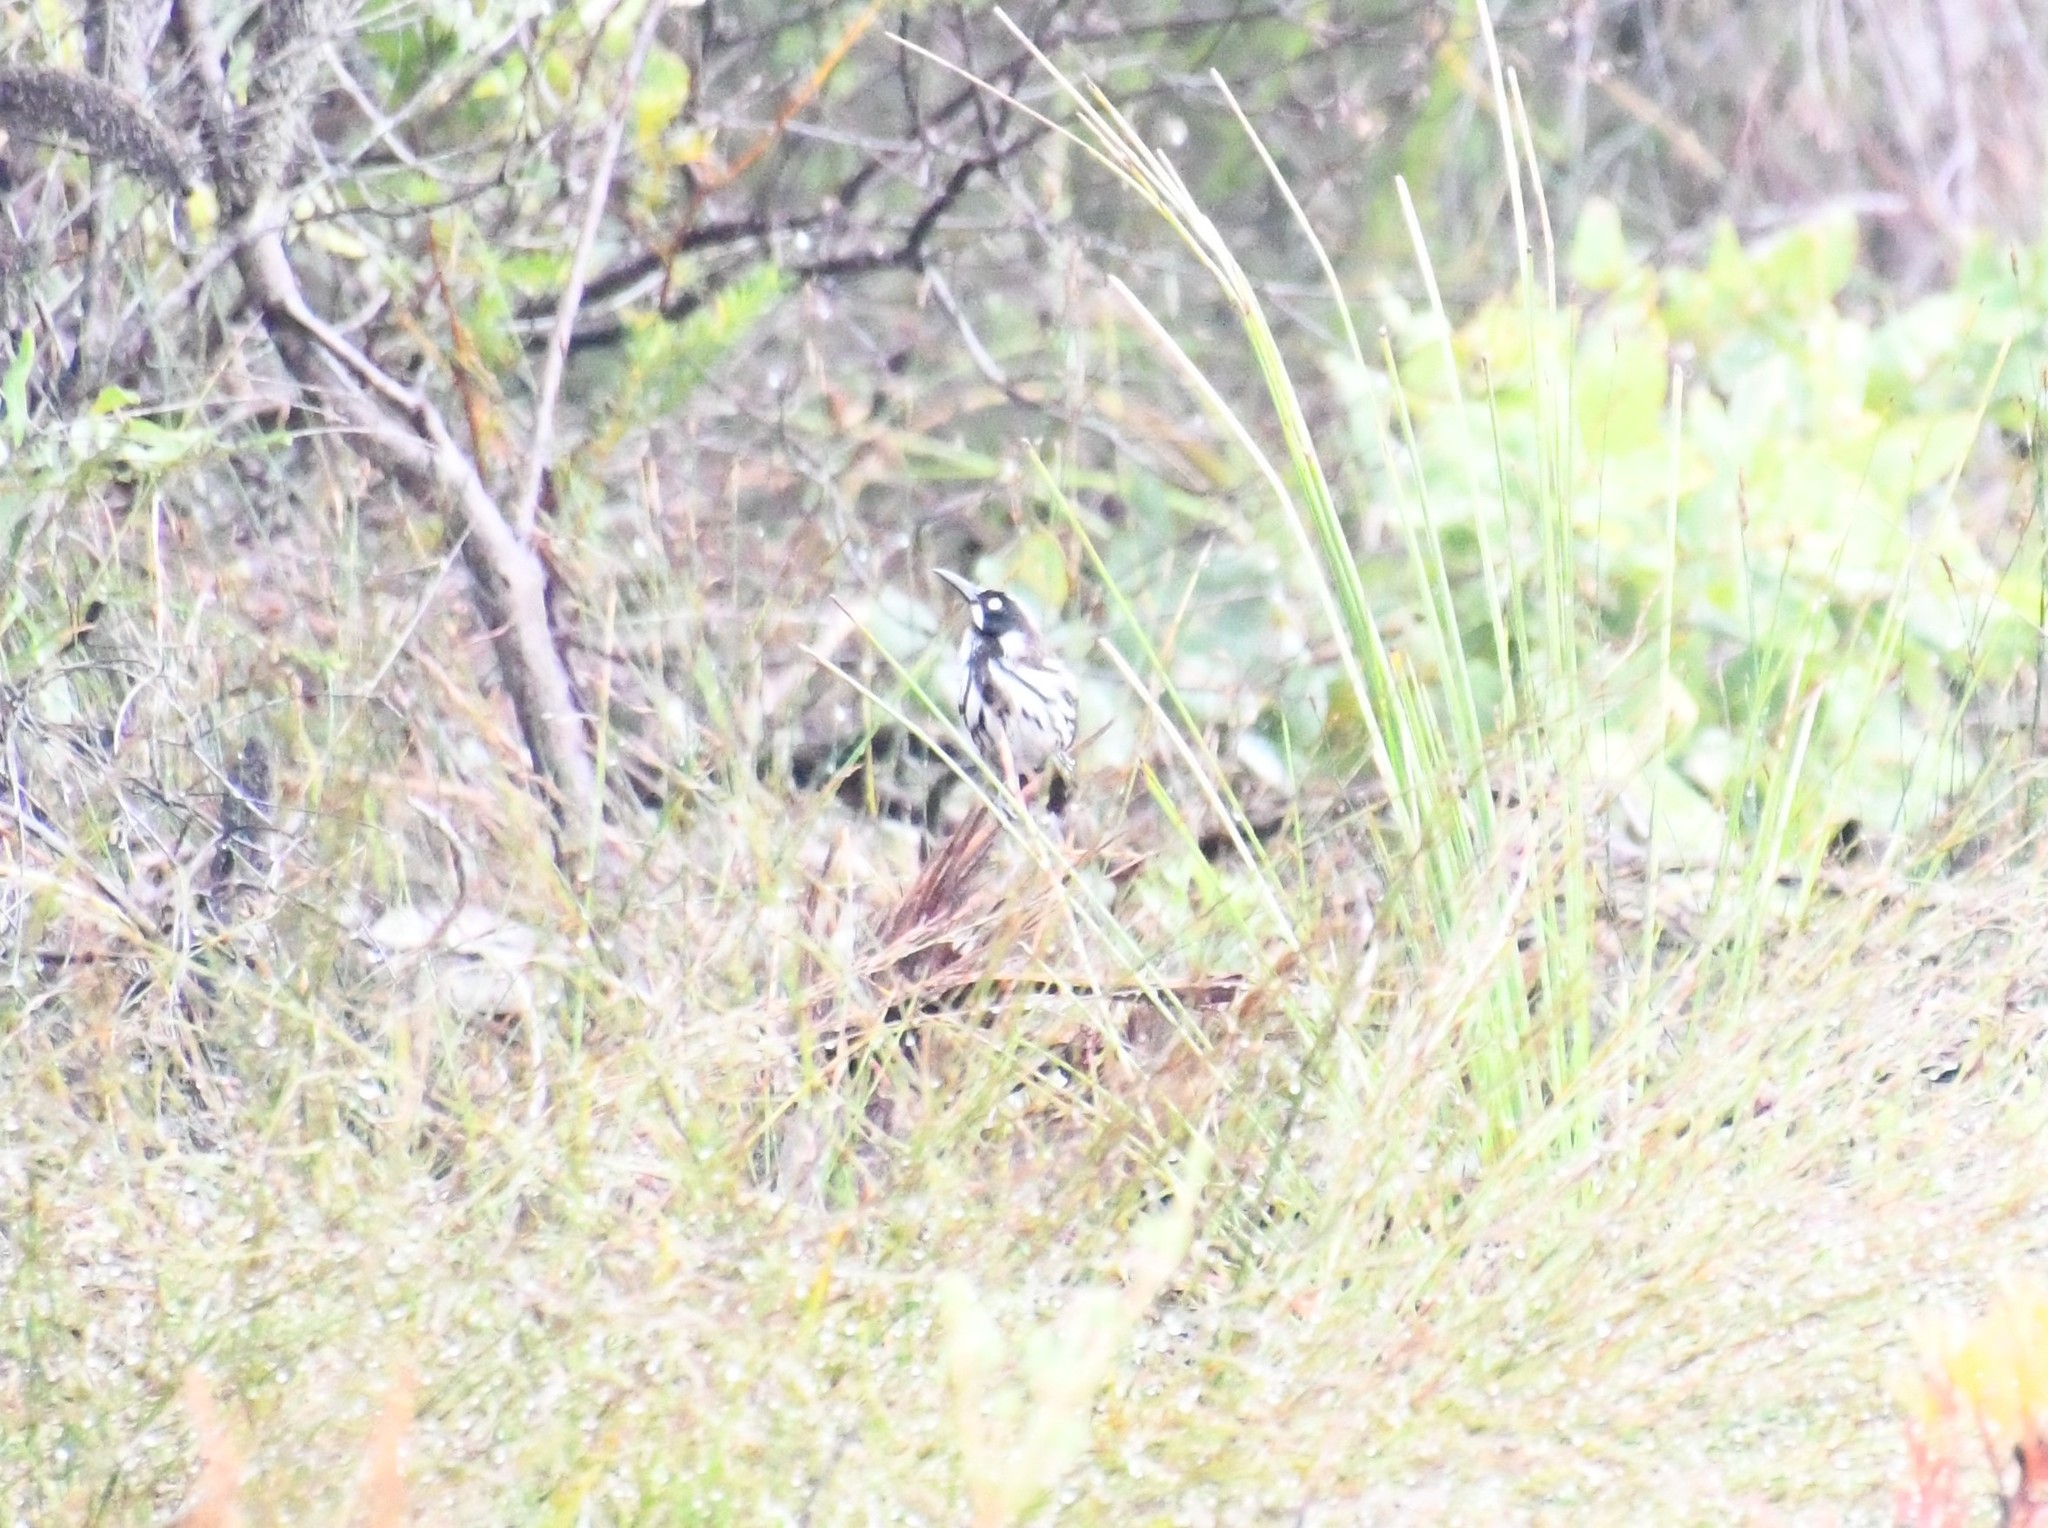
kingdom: Animalia
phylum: Chordata
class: Aves
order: Passeriformes
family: Meliphagidae
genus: Phylidonyris
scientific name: Phylidonyris novaehollandiae
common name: New holland honeyeater
